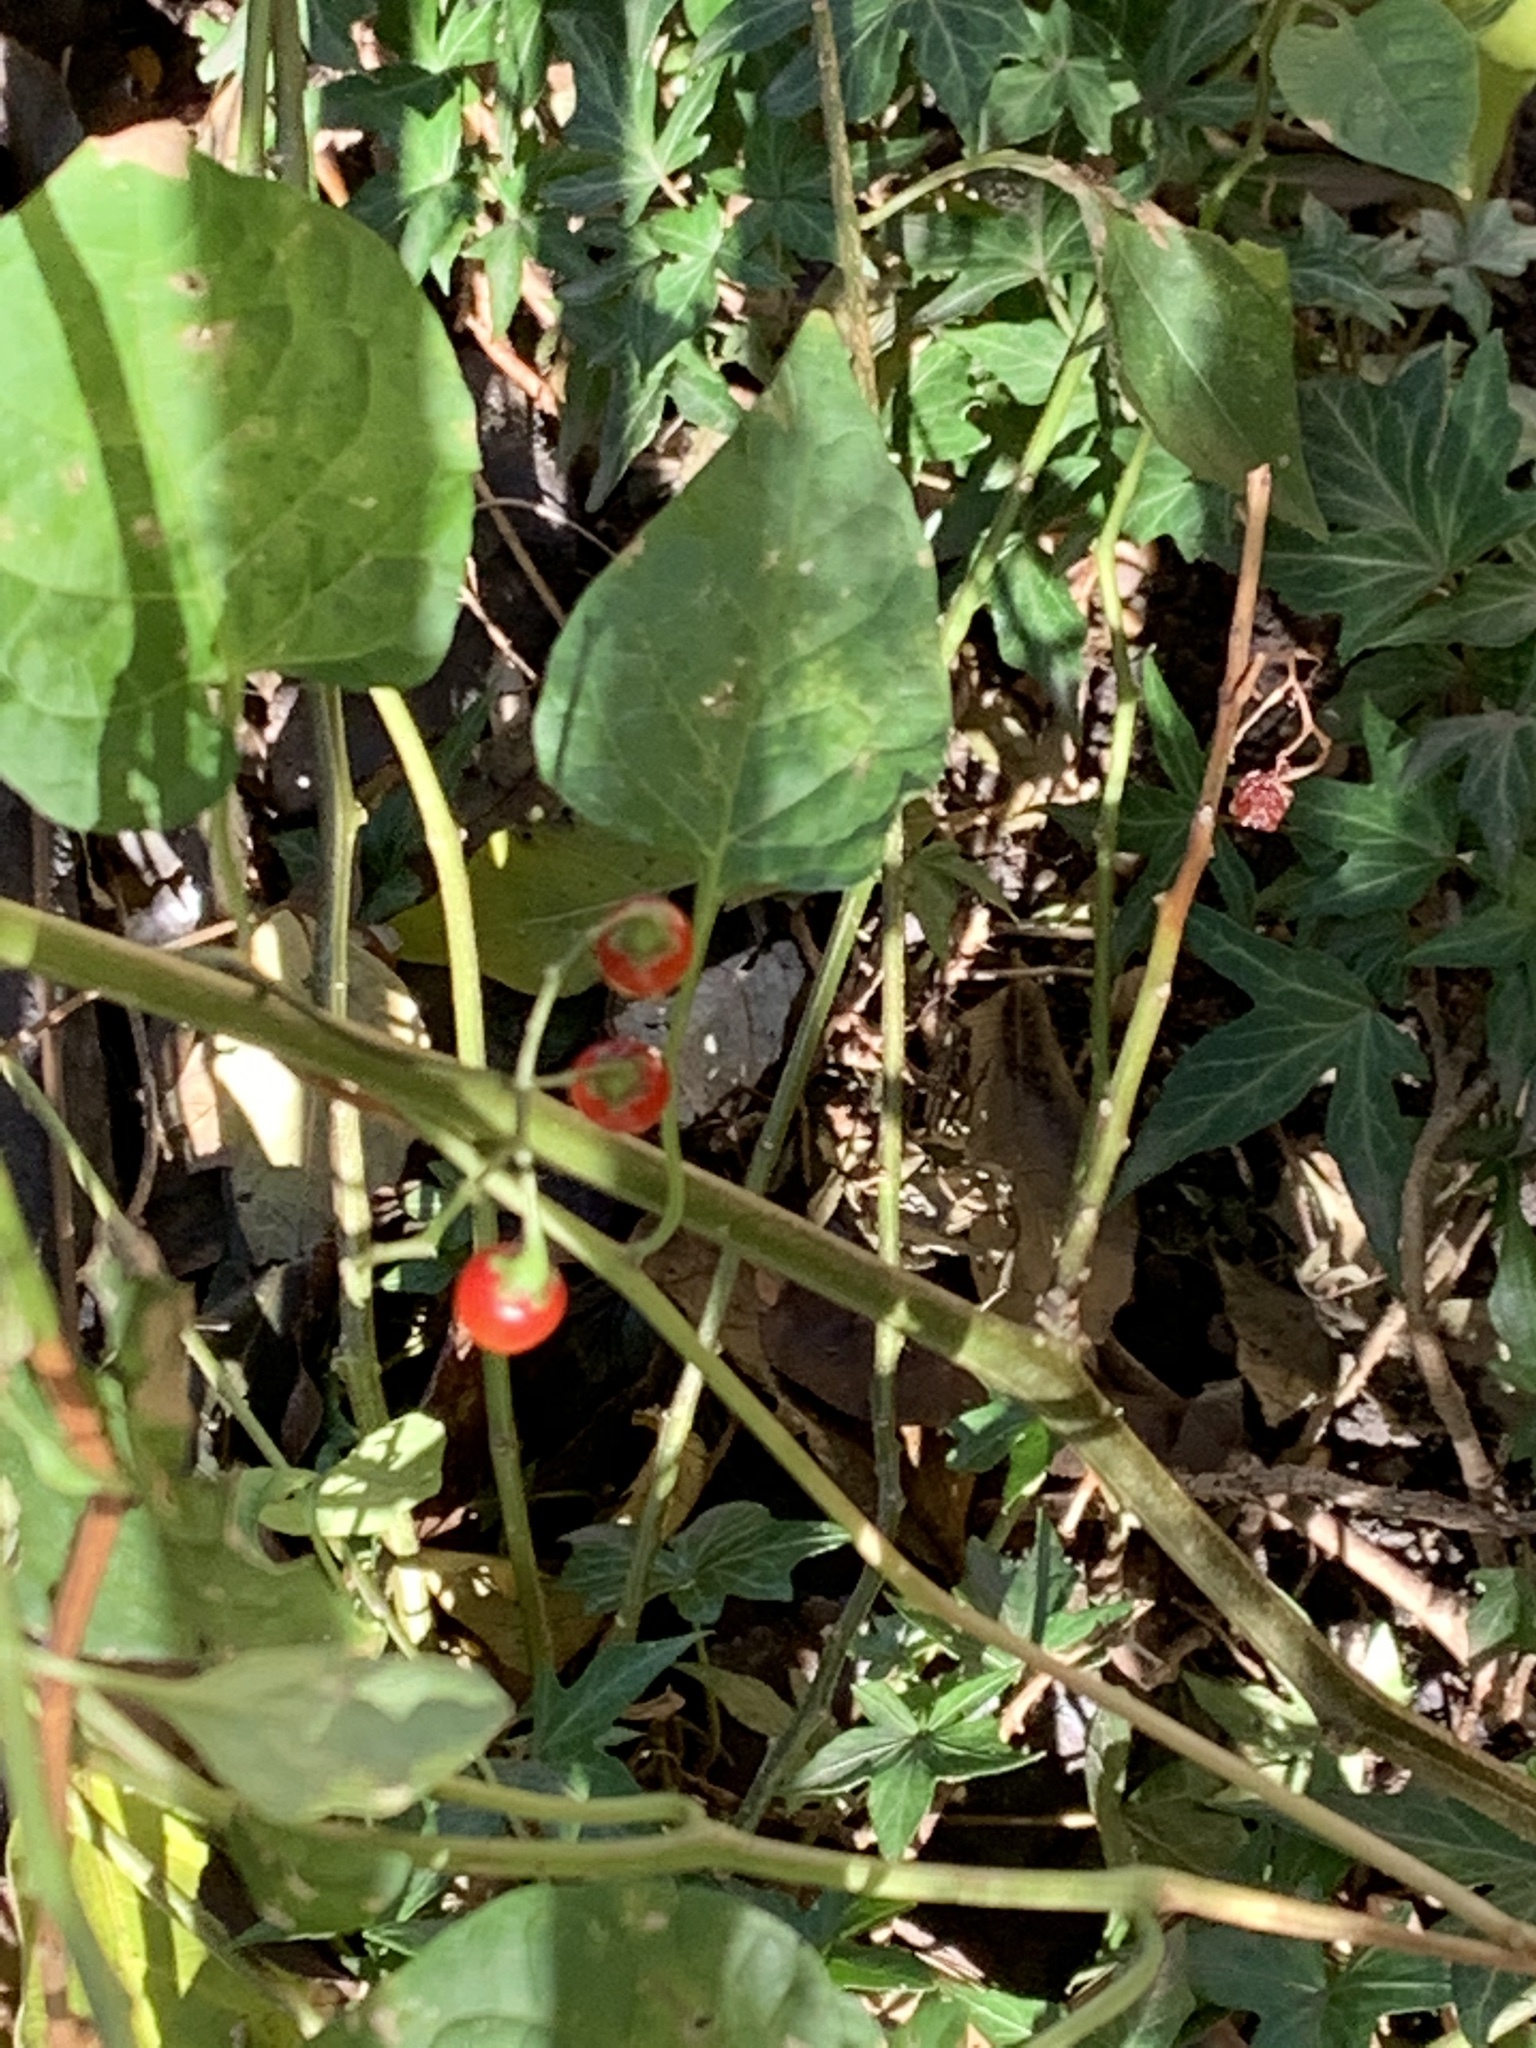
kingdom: Plantae
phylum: Tracheophyta
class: Magnoliopsida
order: Solanales
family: Solanaceae
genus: Solanum
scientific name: Solanum dulcamara
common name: Climbing nightshade
